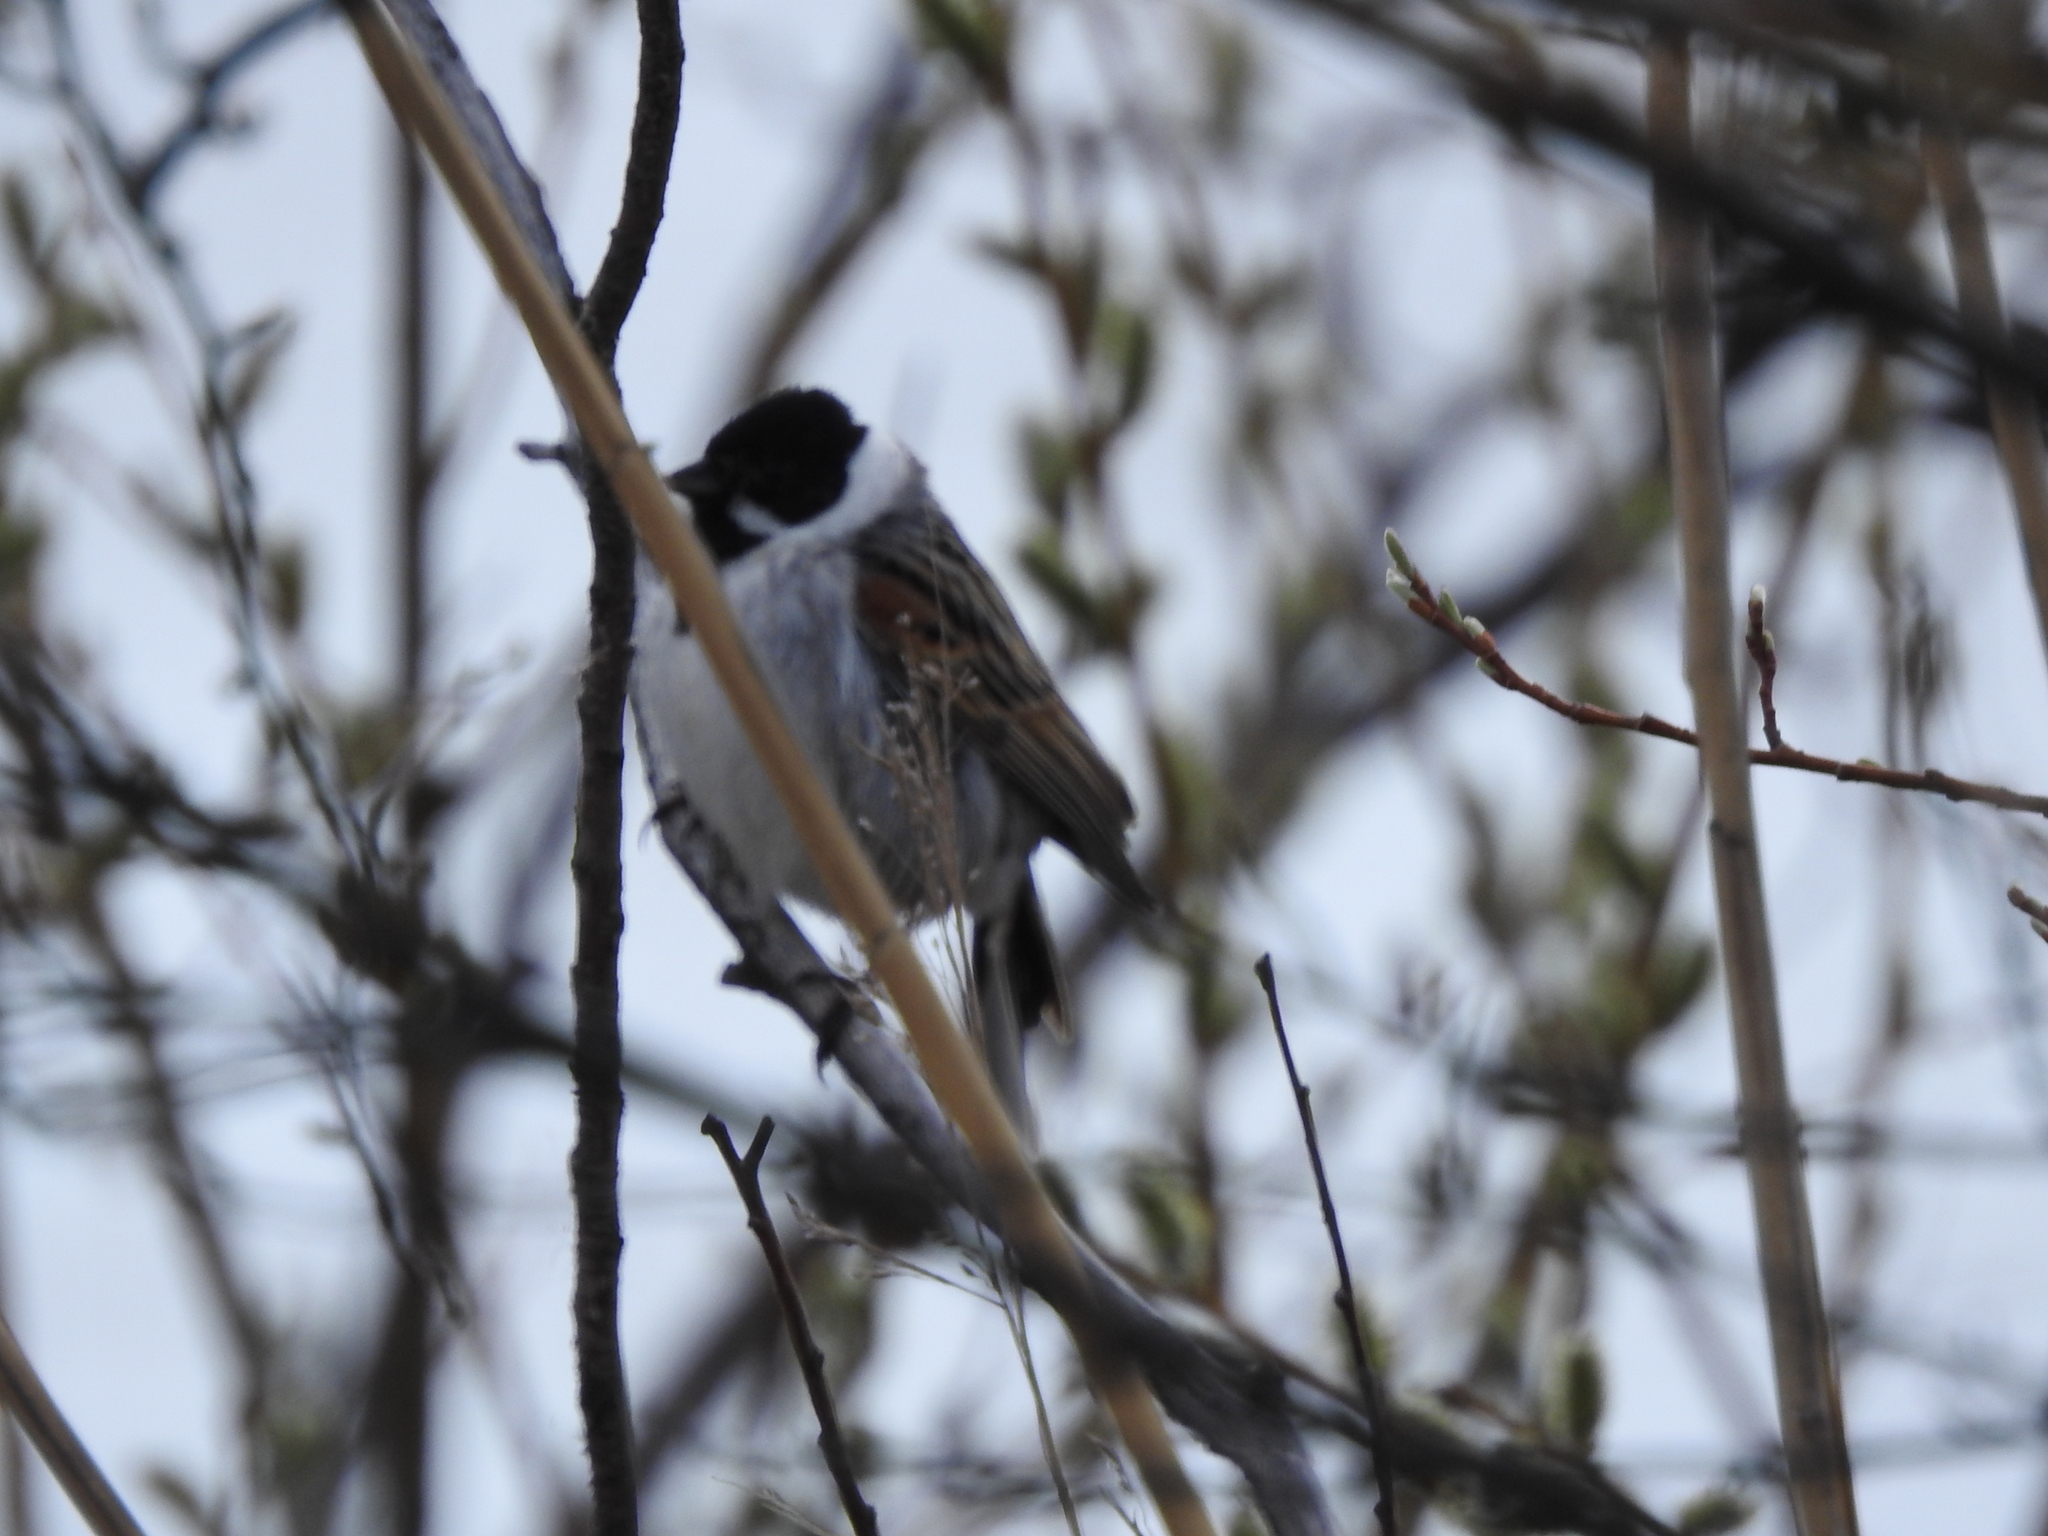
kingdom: Animalia
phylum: Chordata
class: Aves
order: Passeriformes
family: Emberizidae
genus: Emberiza
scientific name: Emberiza schoeniclus
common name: Reed bunting
